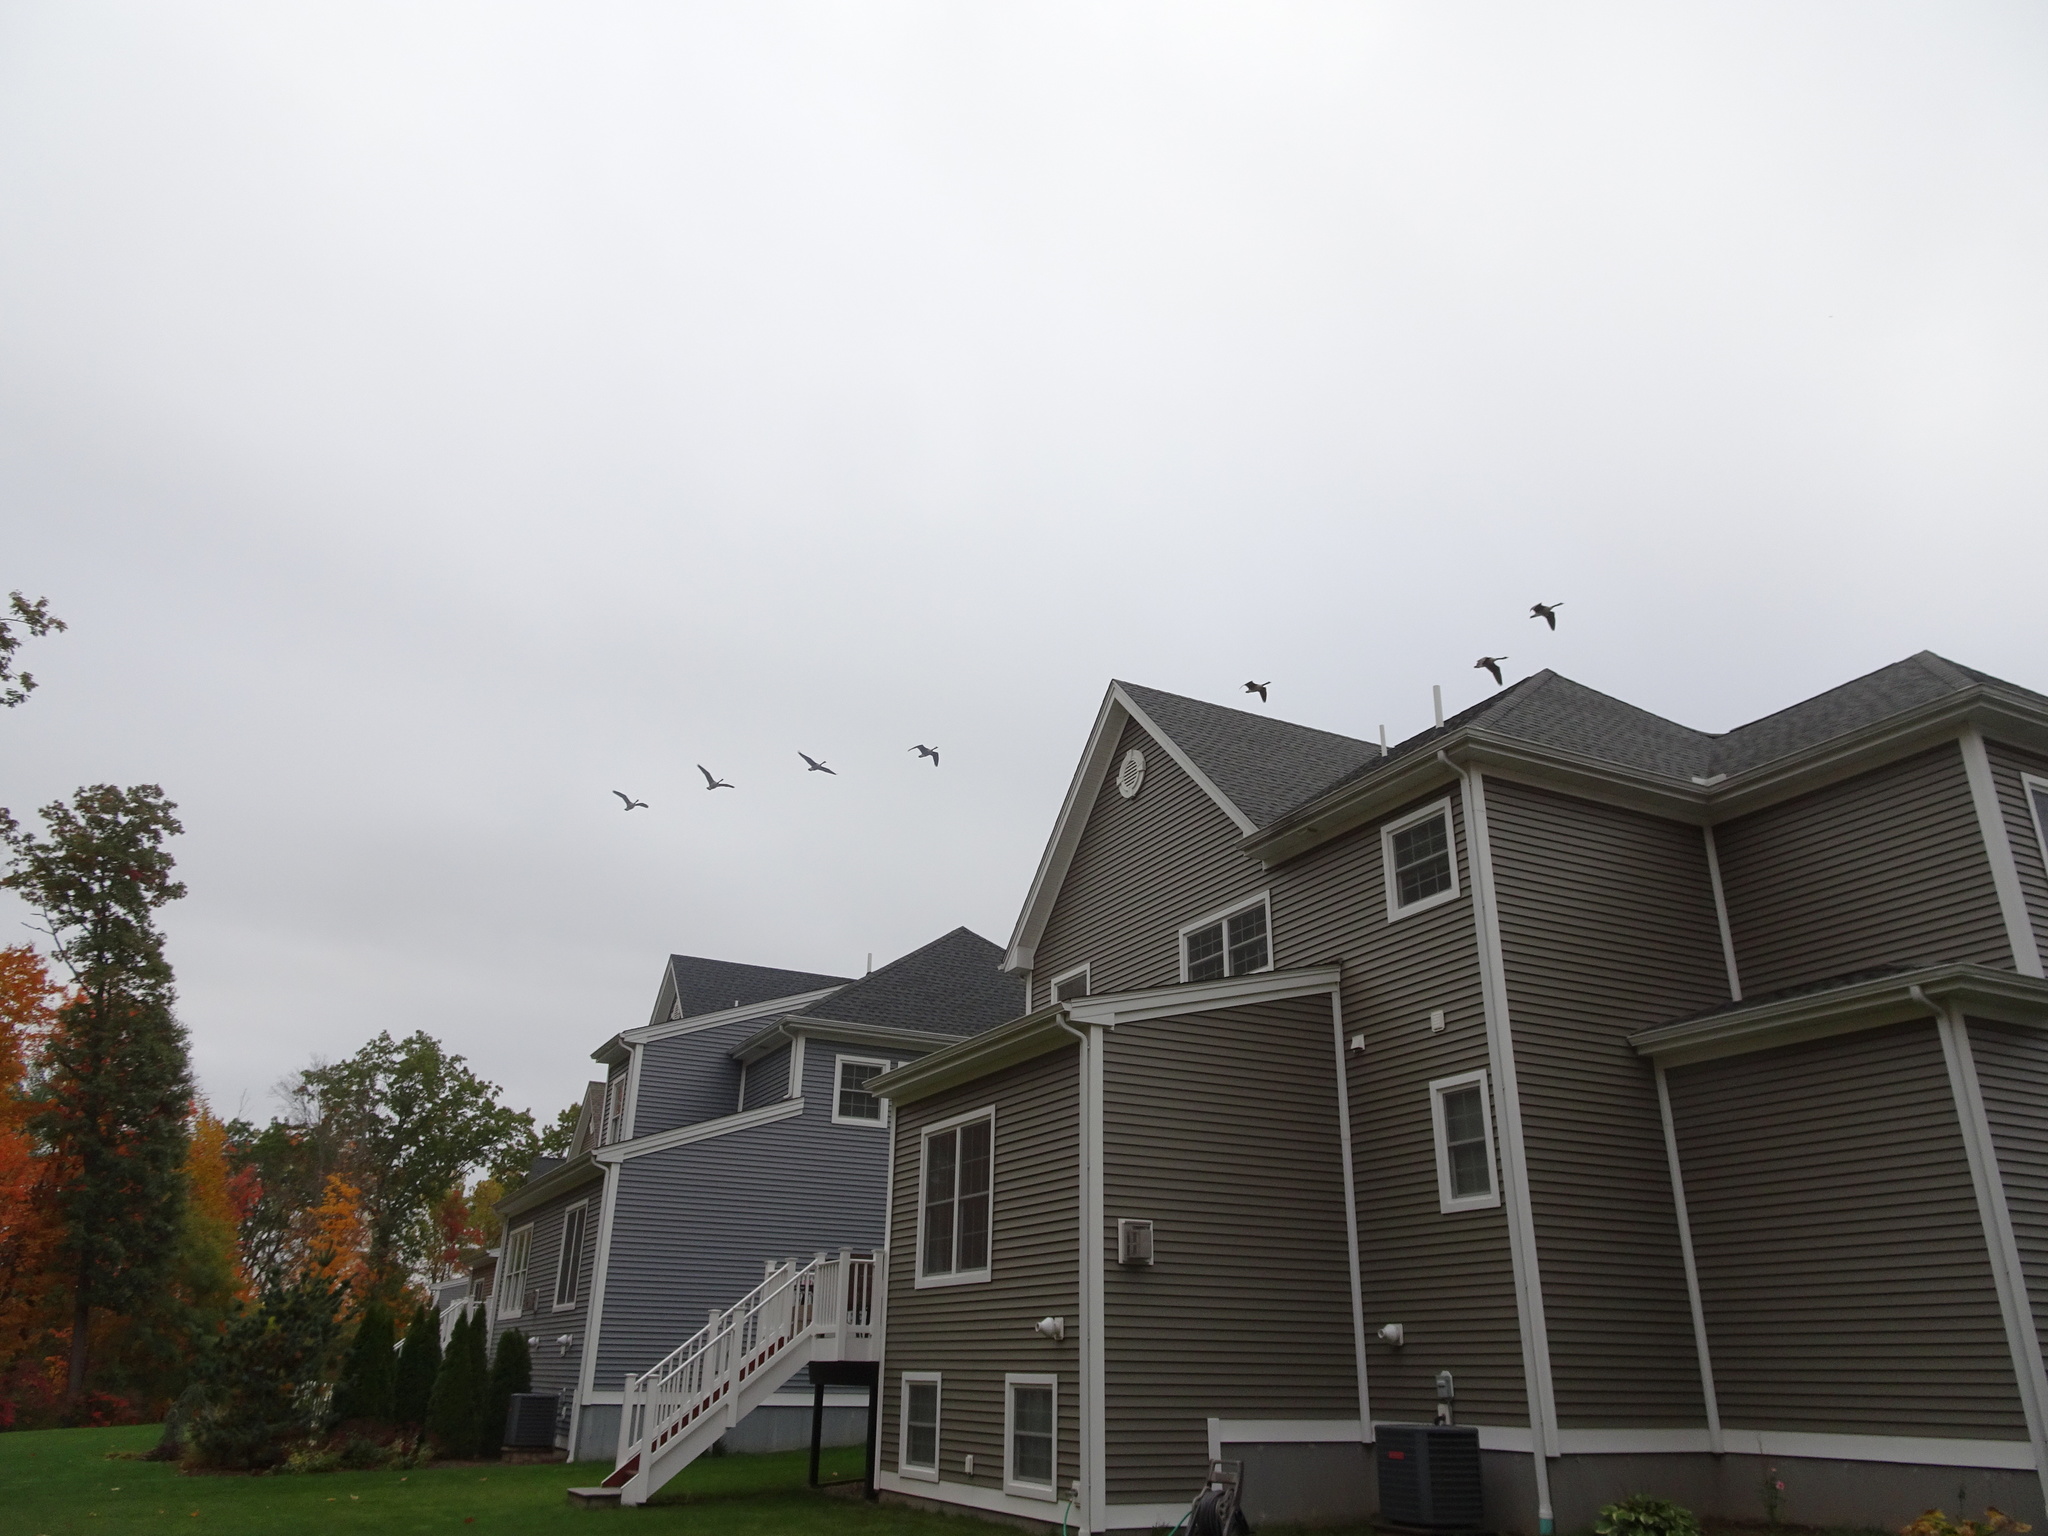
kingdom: Animalia
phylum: Chordata
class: Aves
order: Anseriformes
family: Anatidae
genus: Branta
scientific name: Branta canadensis
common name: Canada goose
